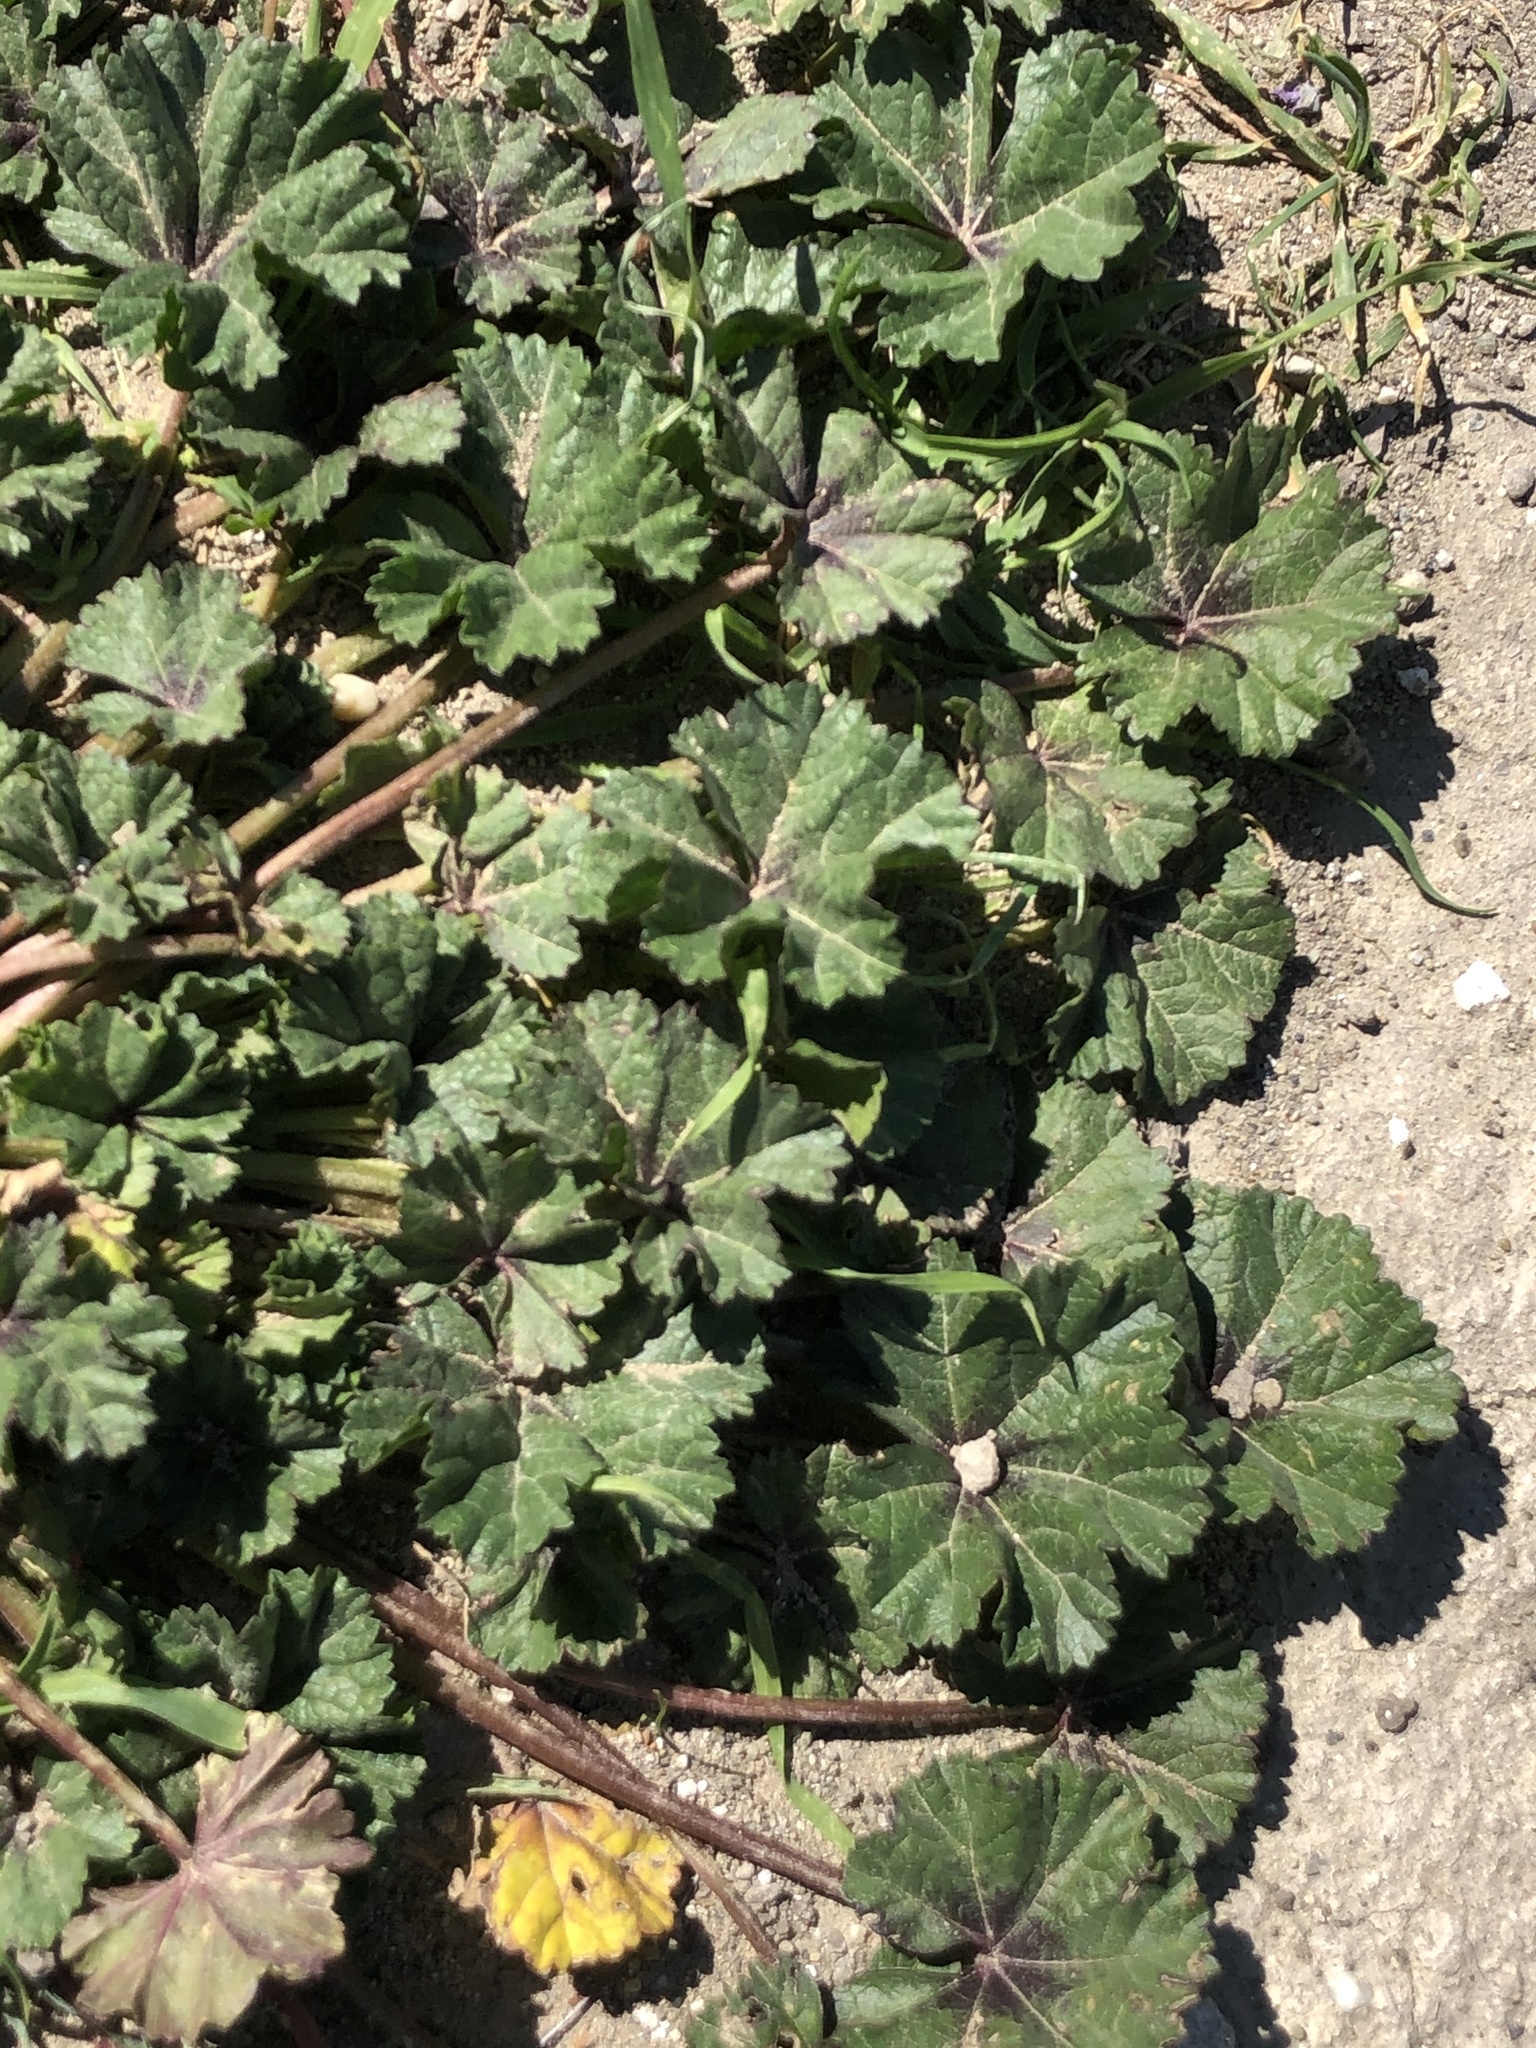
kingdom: Plantae
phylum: Tracheophyta
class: Magnoliopsida
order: Malvales
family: Malvaceae
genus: Malva
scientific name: Malva
